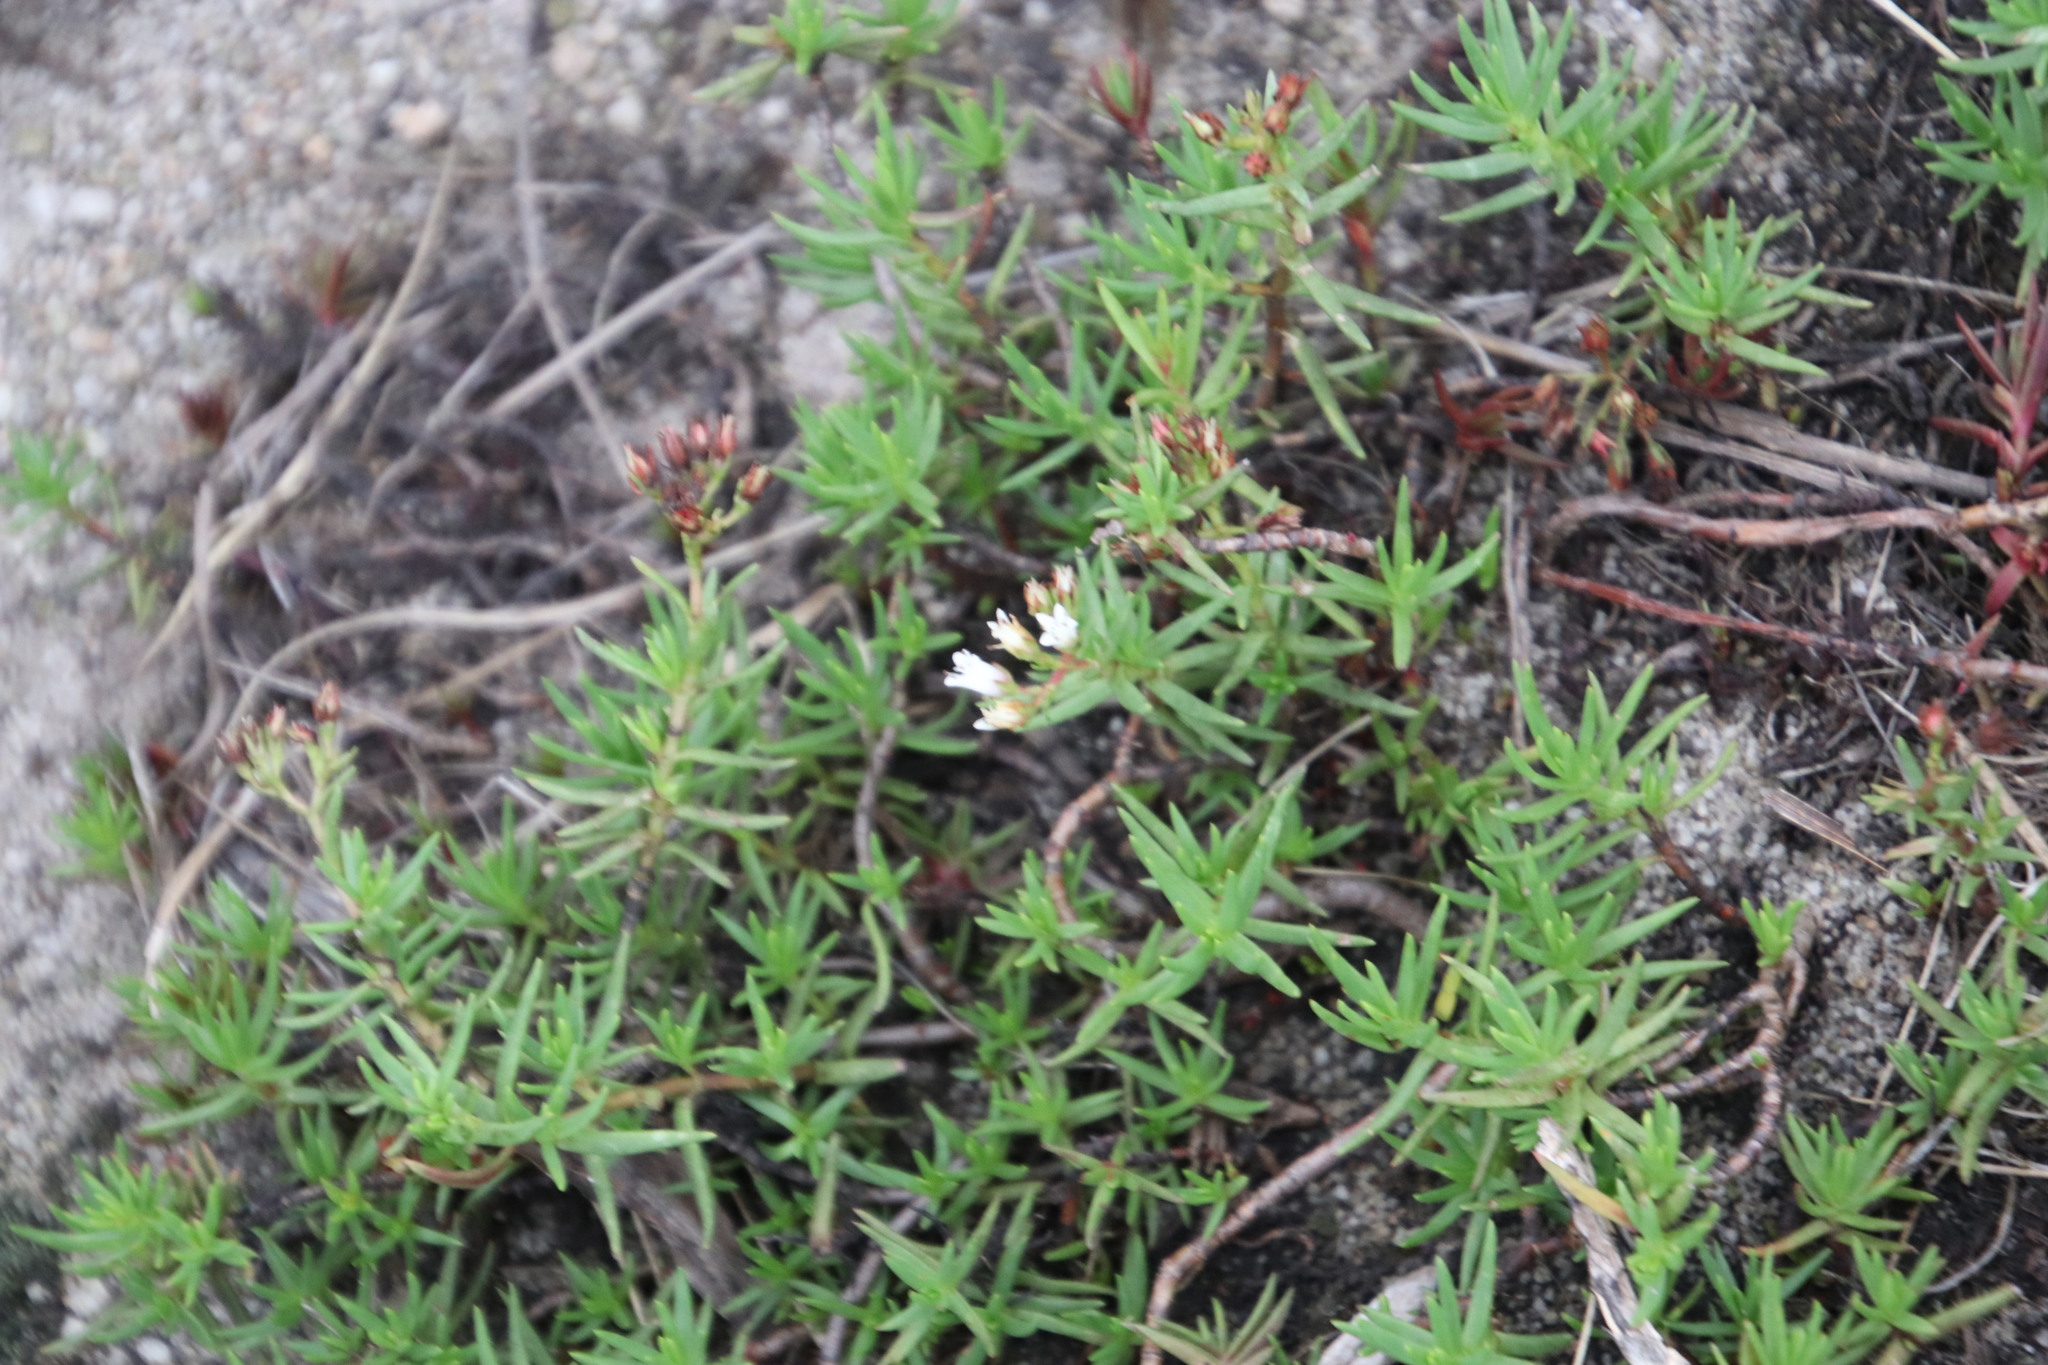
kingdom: Plantae
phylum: Tracheophyta
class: Magnoliopsida
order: Saxifragales
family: Crassulaceae
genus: Crassula
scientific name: Crassula dependens
